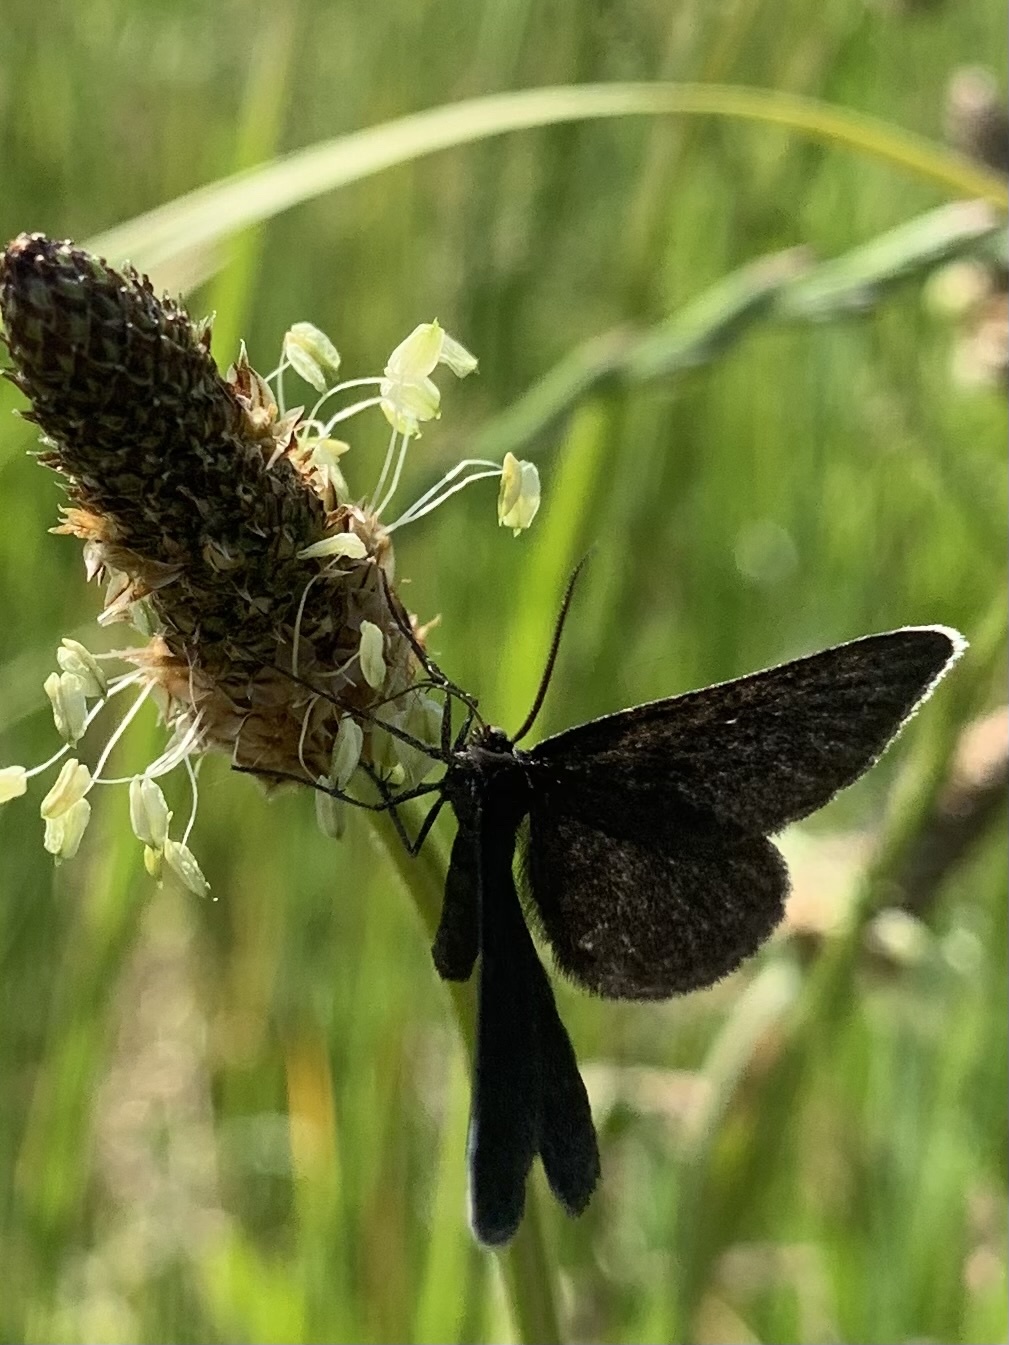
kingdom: Animalia
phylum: Arthropoda
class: Insecta
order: Lepidoptera
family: Geometridae
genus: Odezia
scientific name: Odezia atrata
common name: Chimney sweeper
